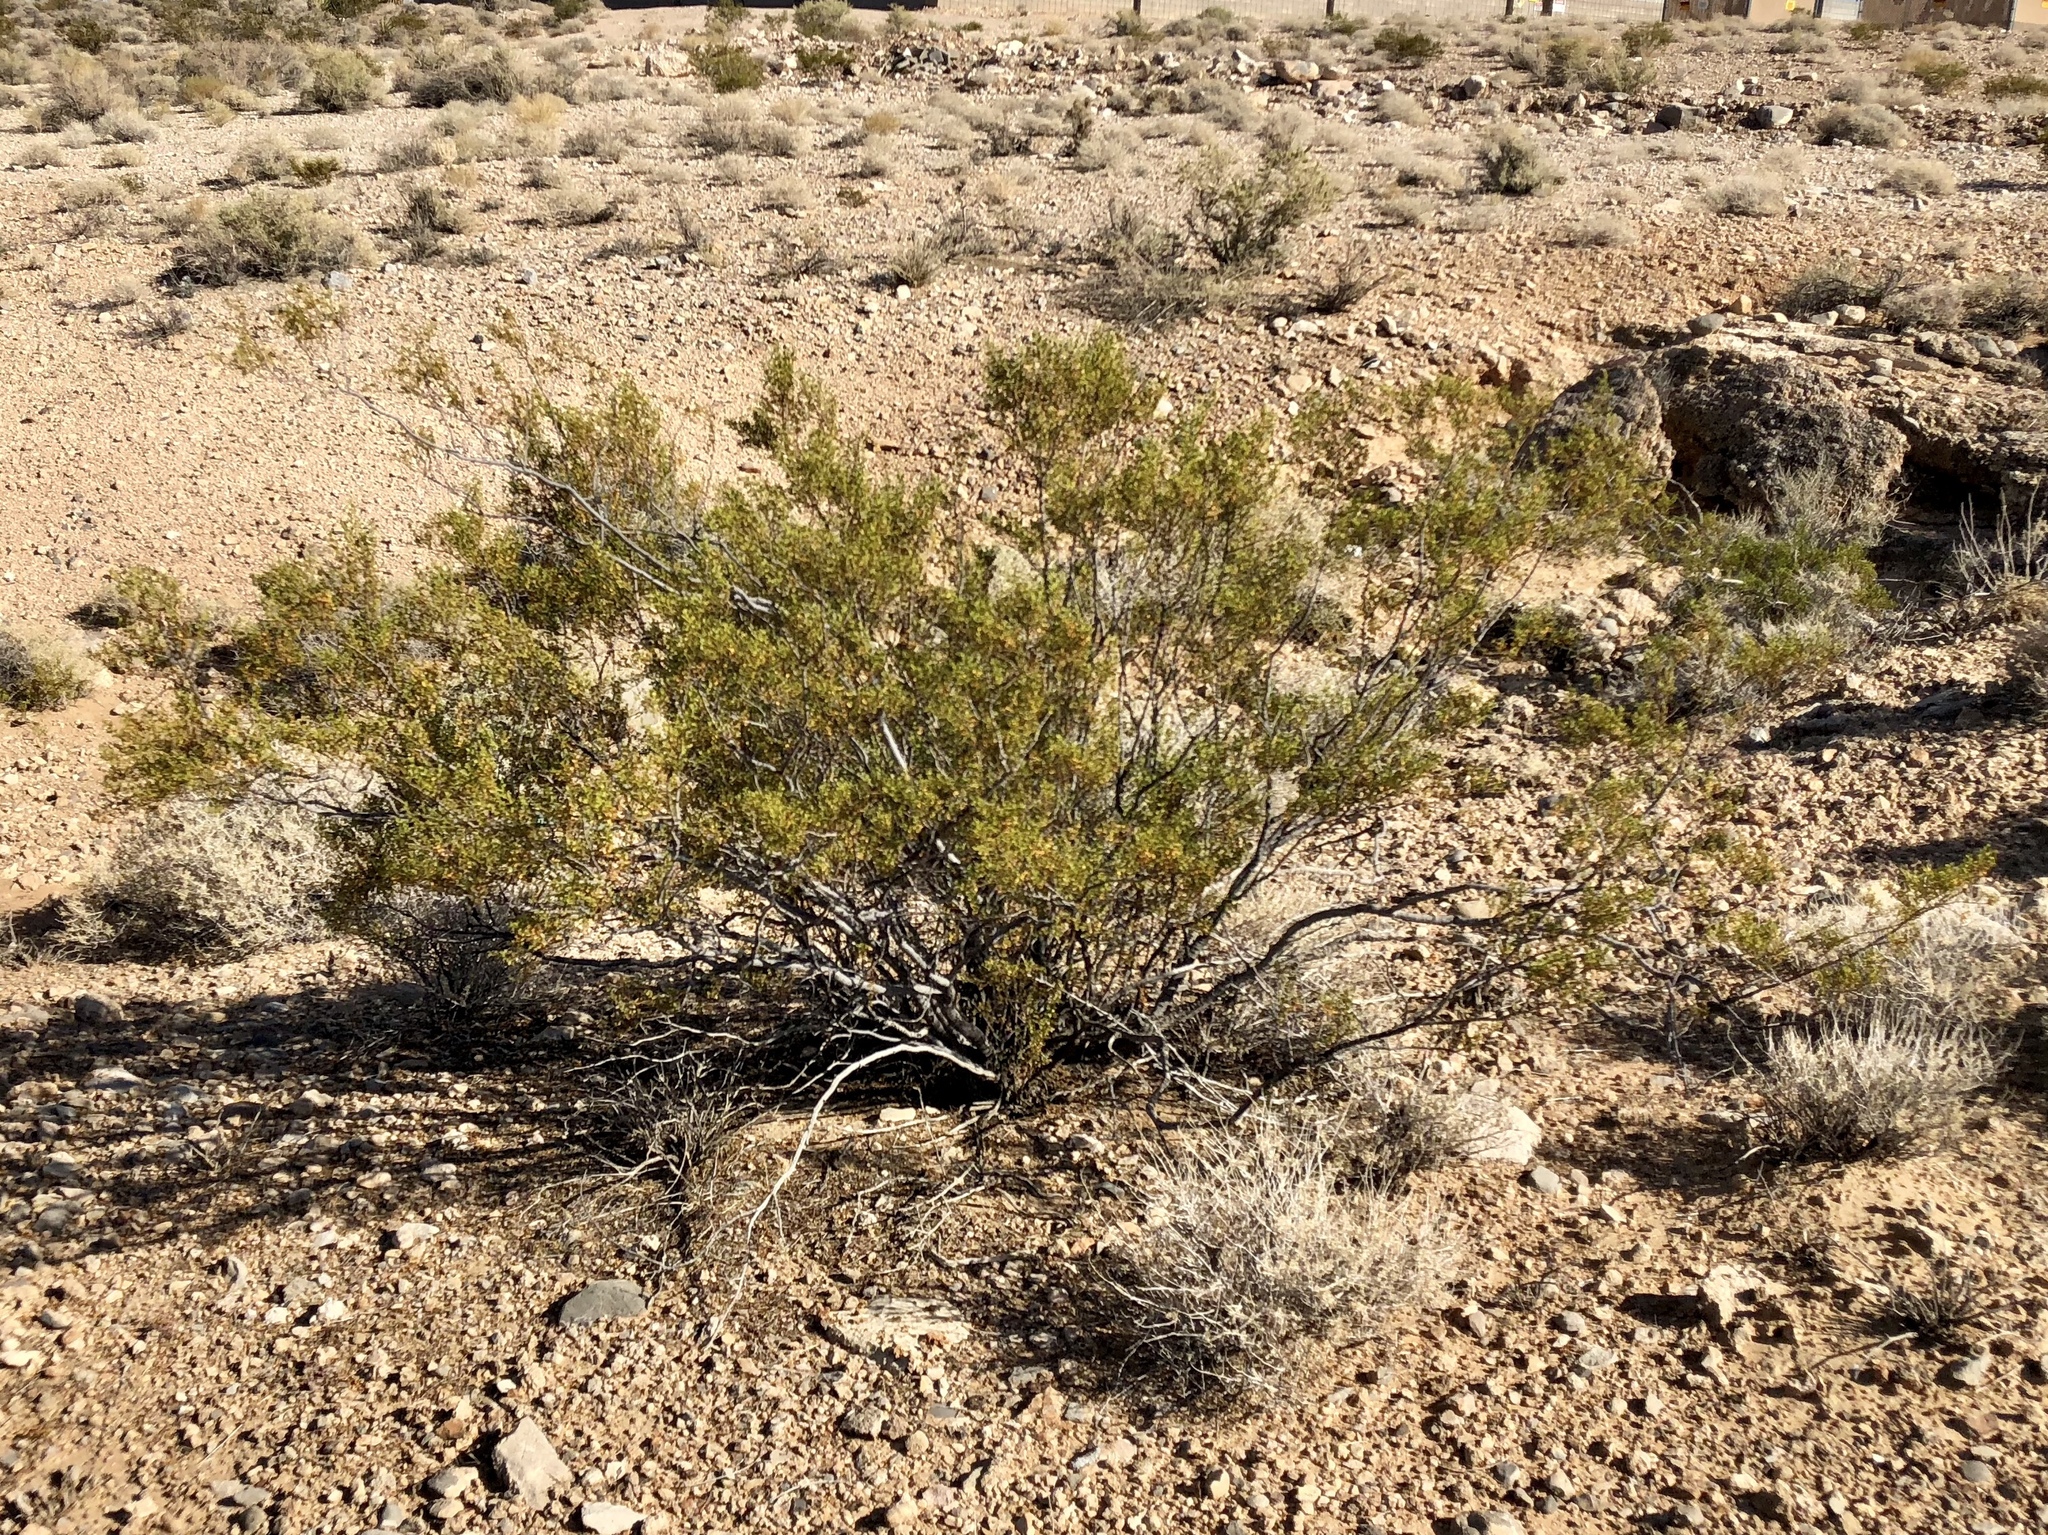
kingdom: Plantae
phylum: Tracheophyta
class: Magnoliopsida
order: Zygophyllales
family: Zygophyllaceae
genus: Larrea
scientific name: Larrea tridentata
